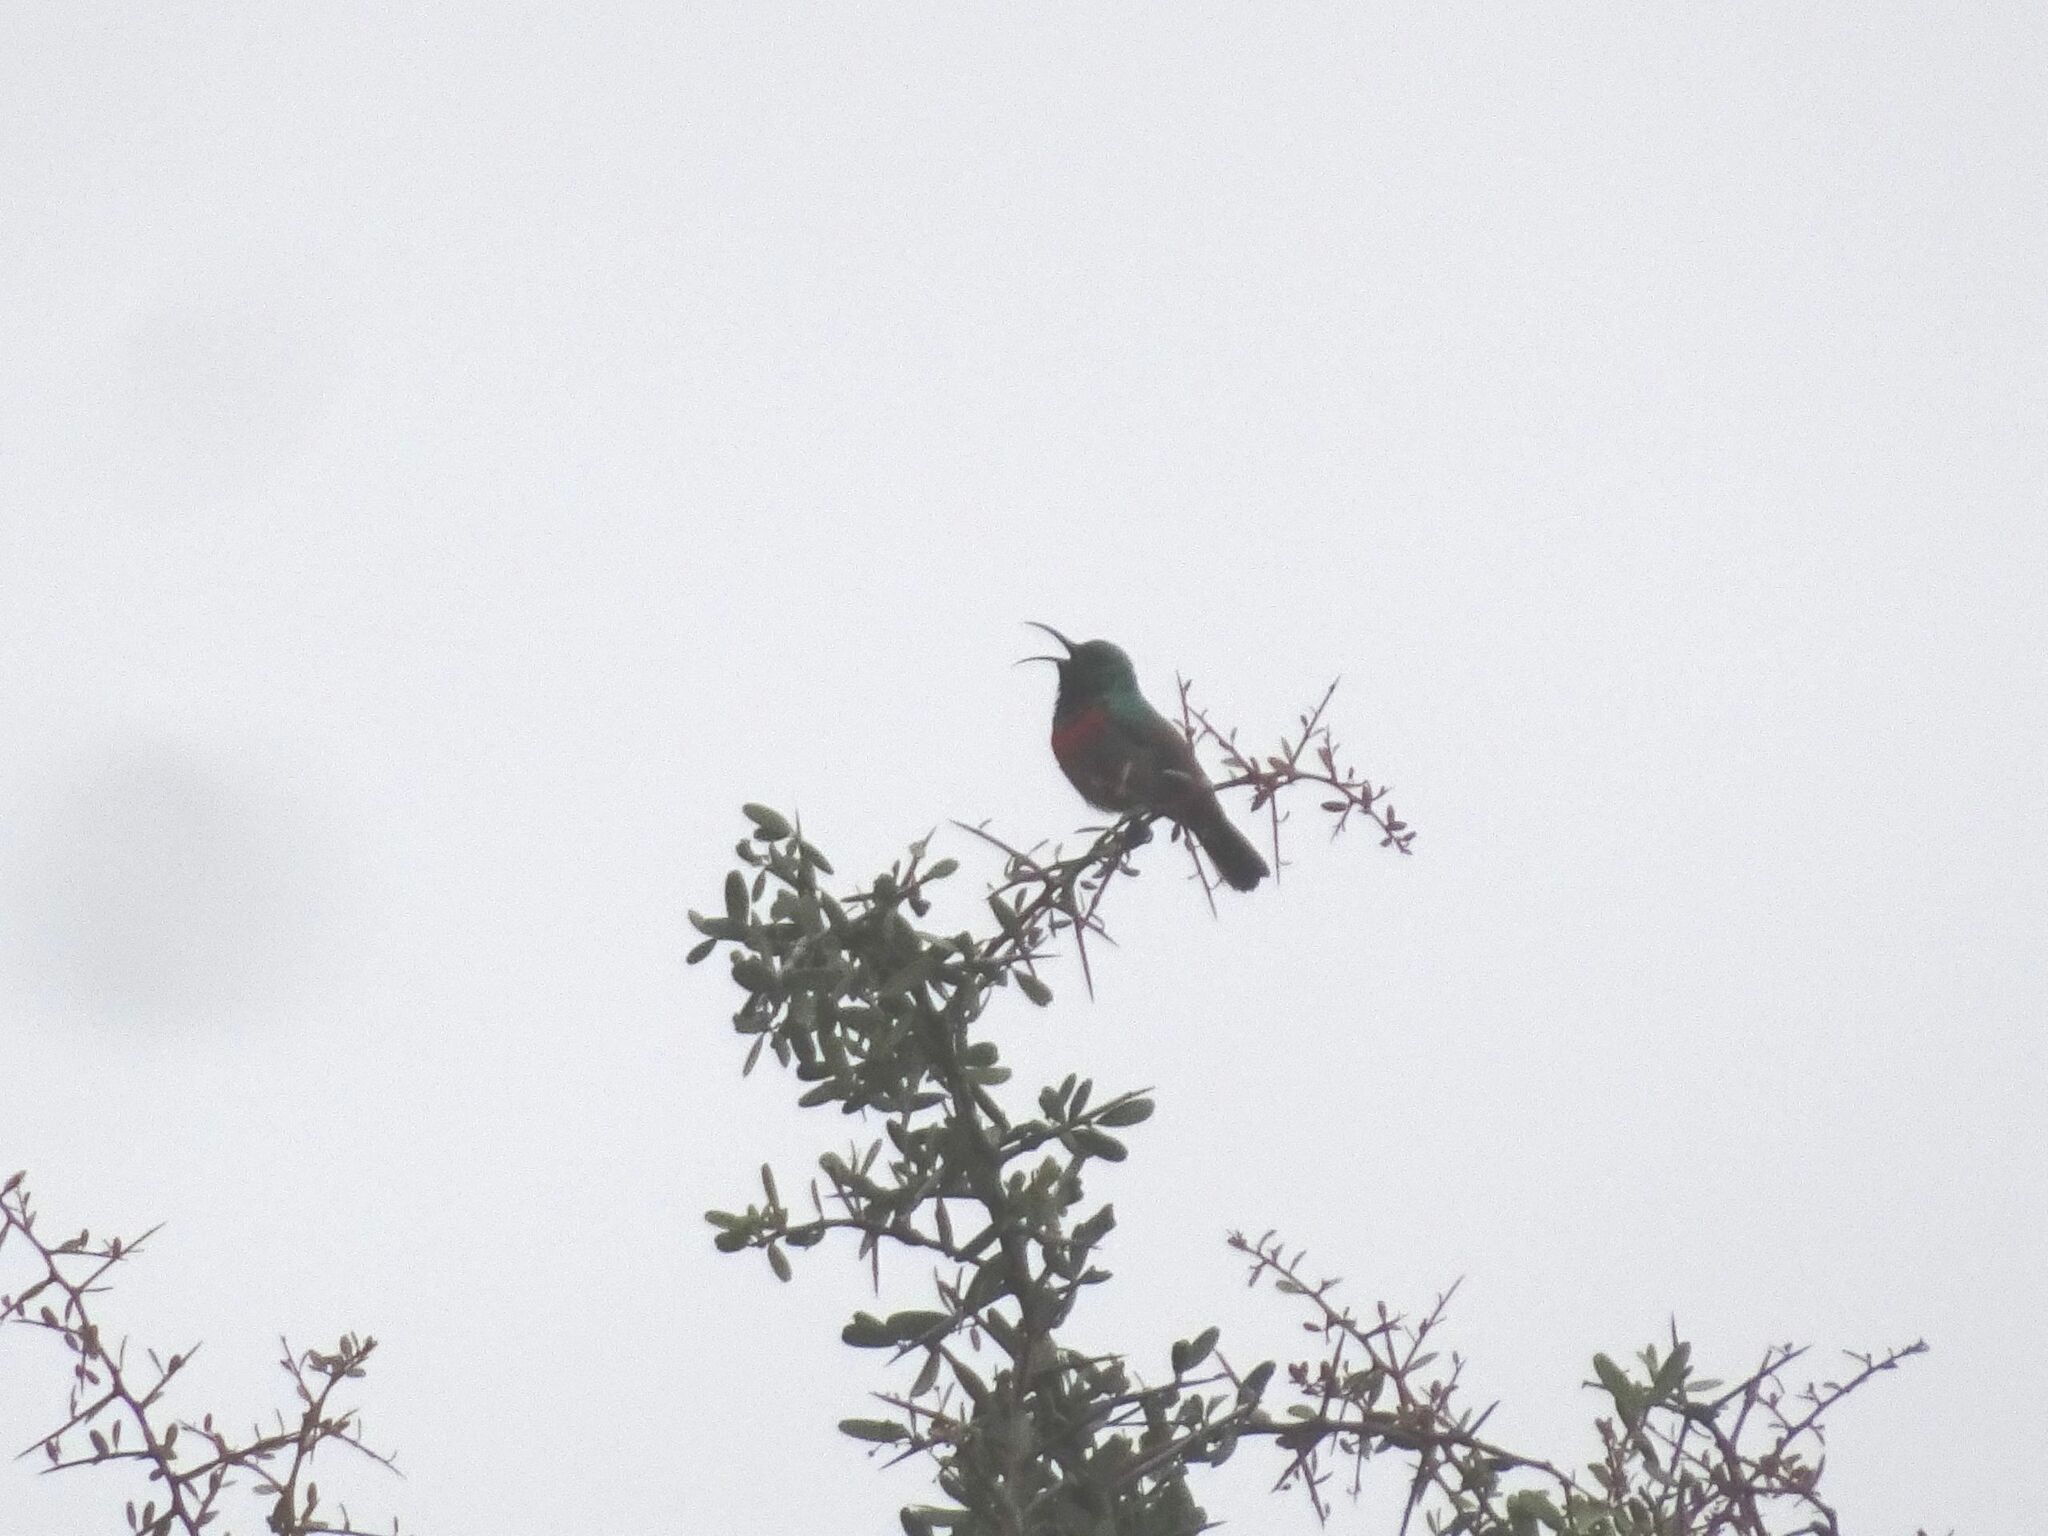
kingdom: Animalia
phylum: Chordata
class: Aves
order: Passeriformes
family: Nectariniidae
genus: Cinnyris
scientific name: Cinnyris afer
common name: Greater double-collared sunbird
